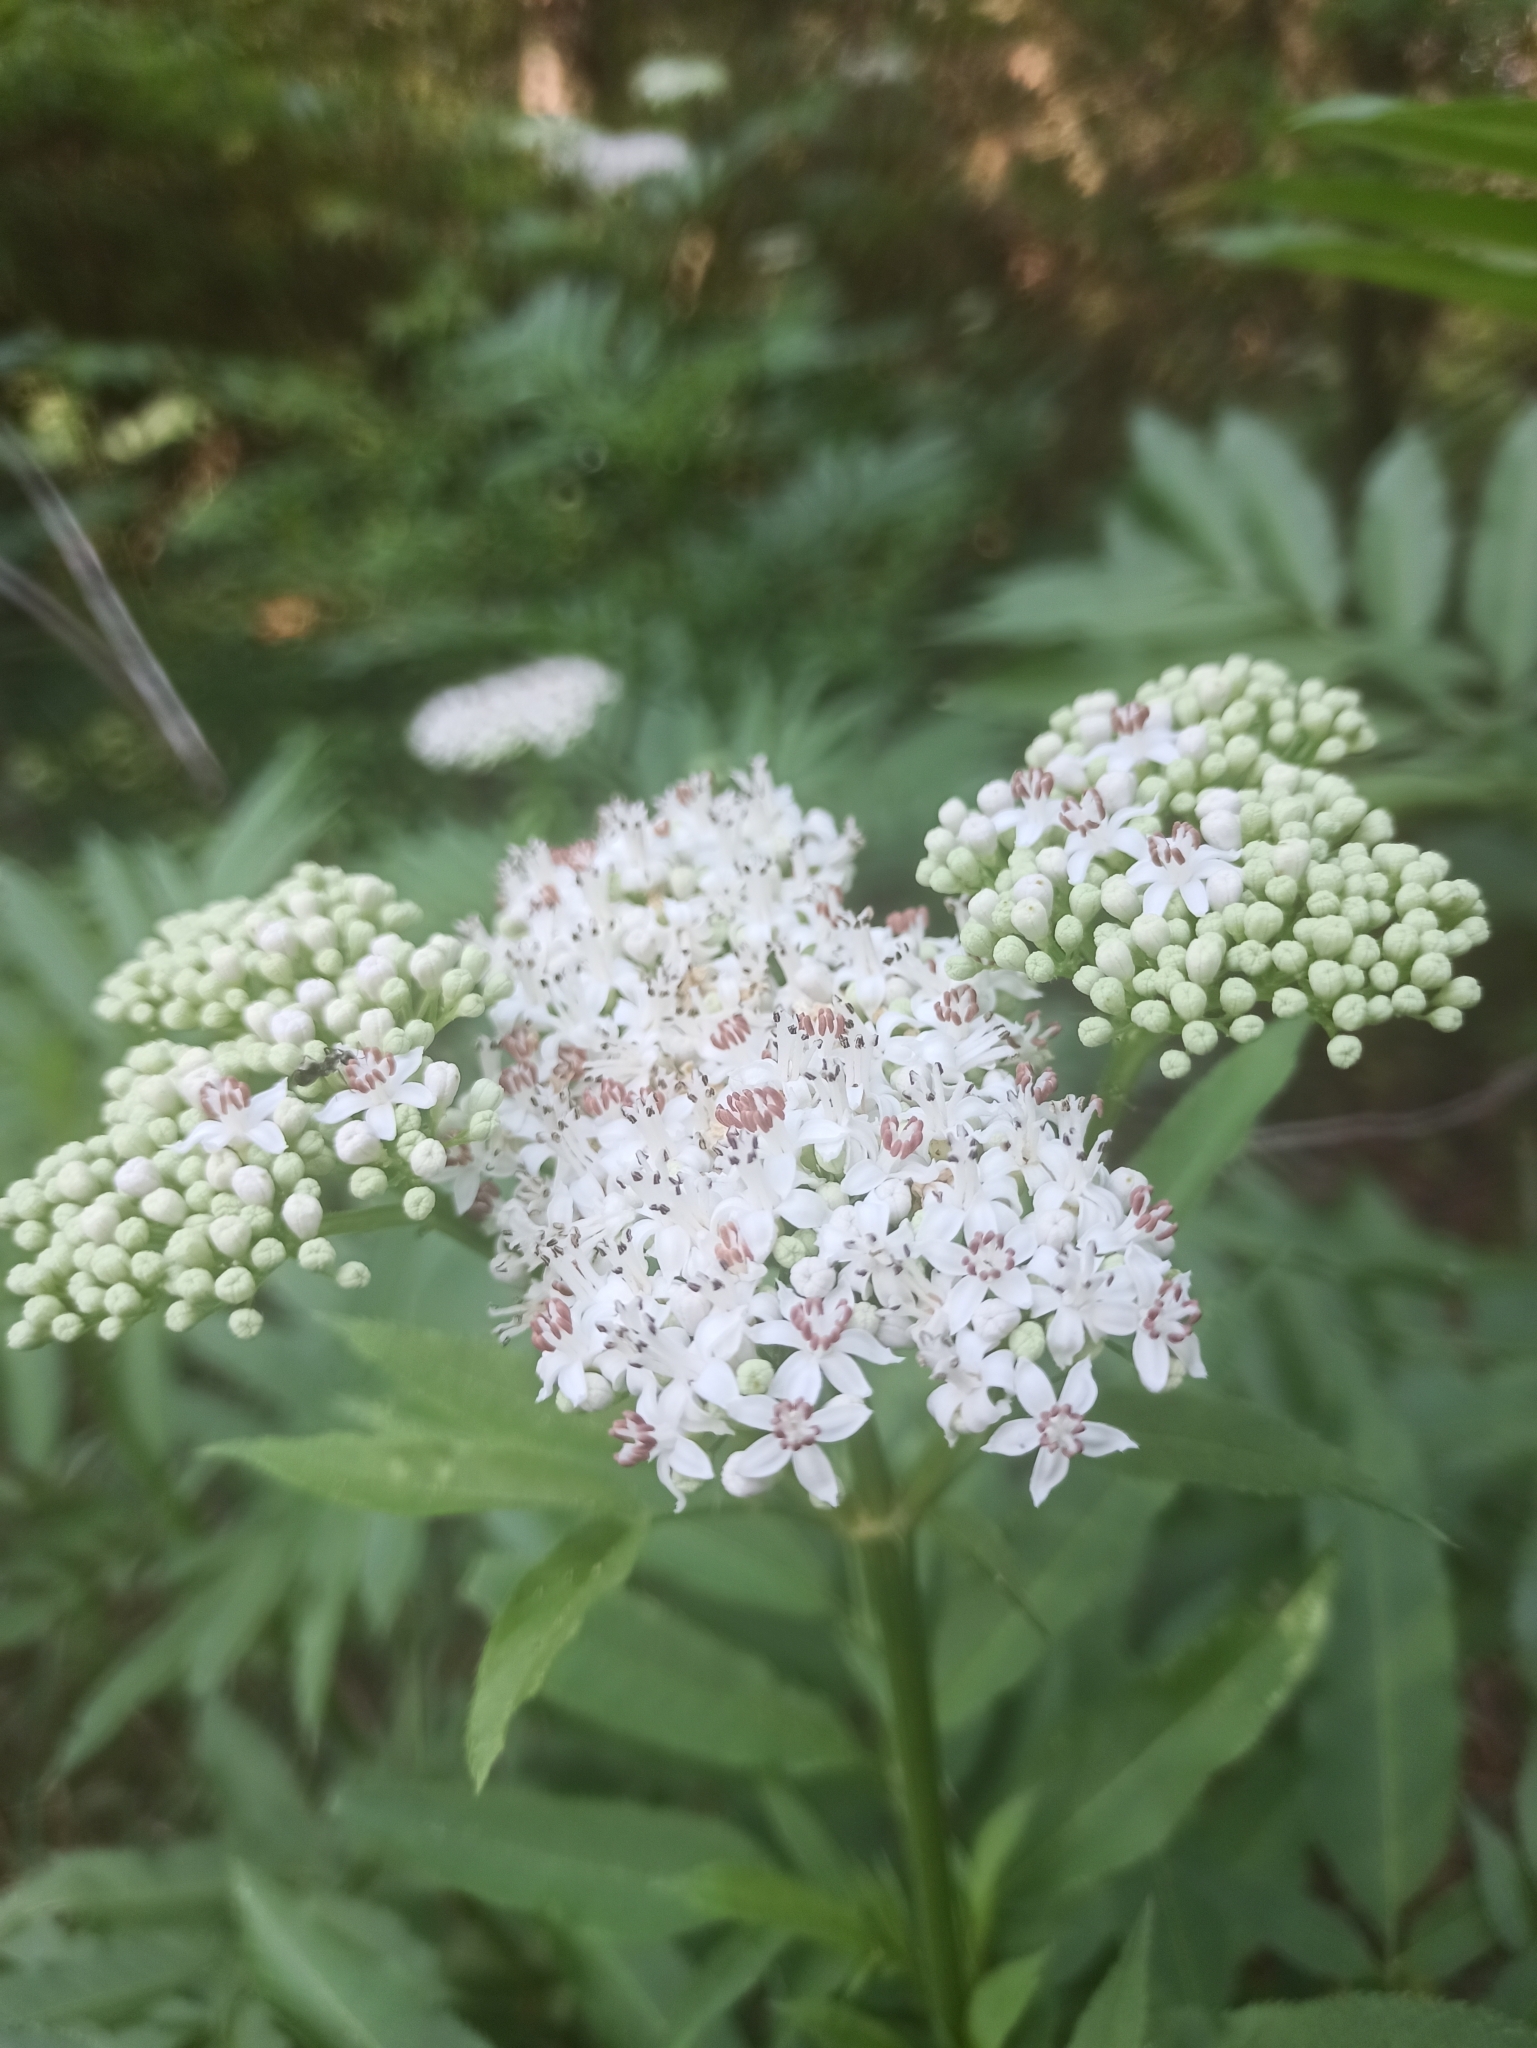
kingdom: Plantae
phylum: Tracheophyta
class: Magnoliopsida
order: Dipsacales
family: Viburnaceae
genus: Sambucus
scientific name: Sambucus ebulus
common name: Dwarf elder
